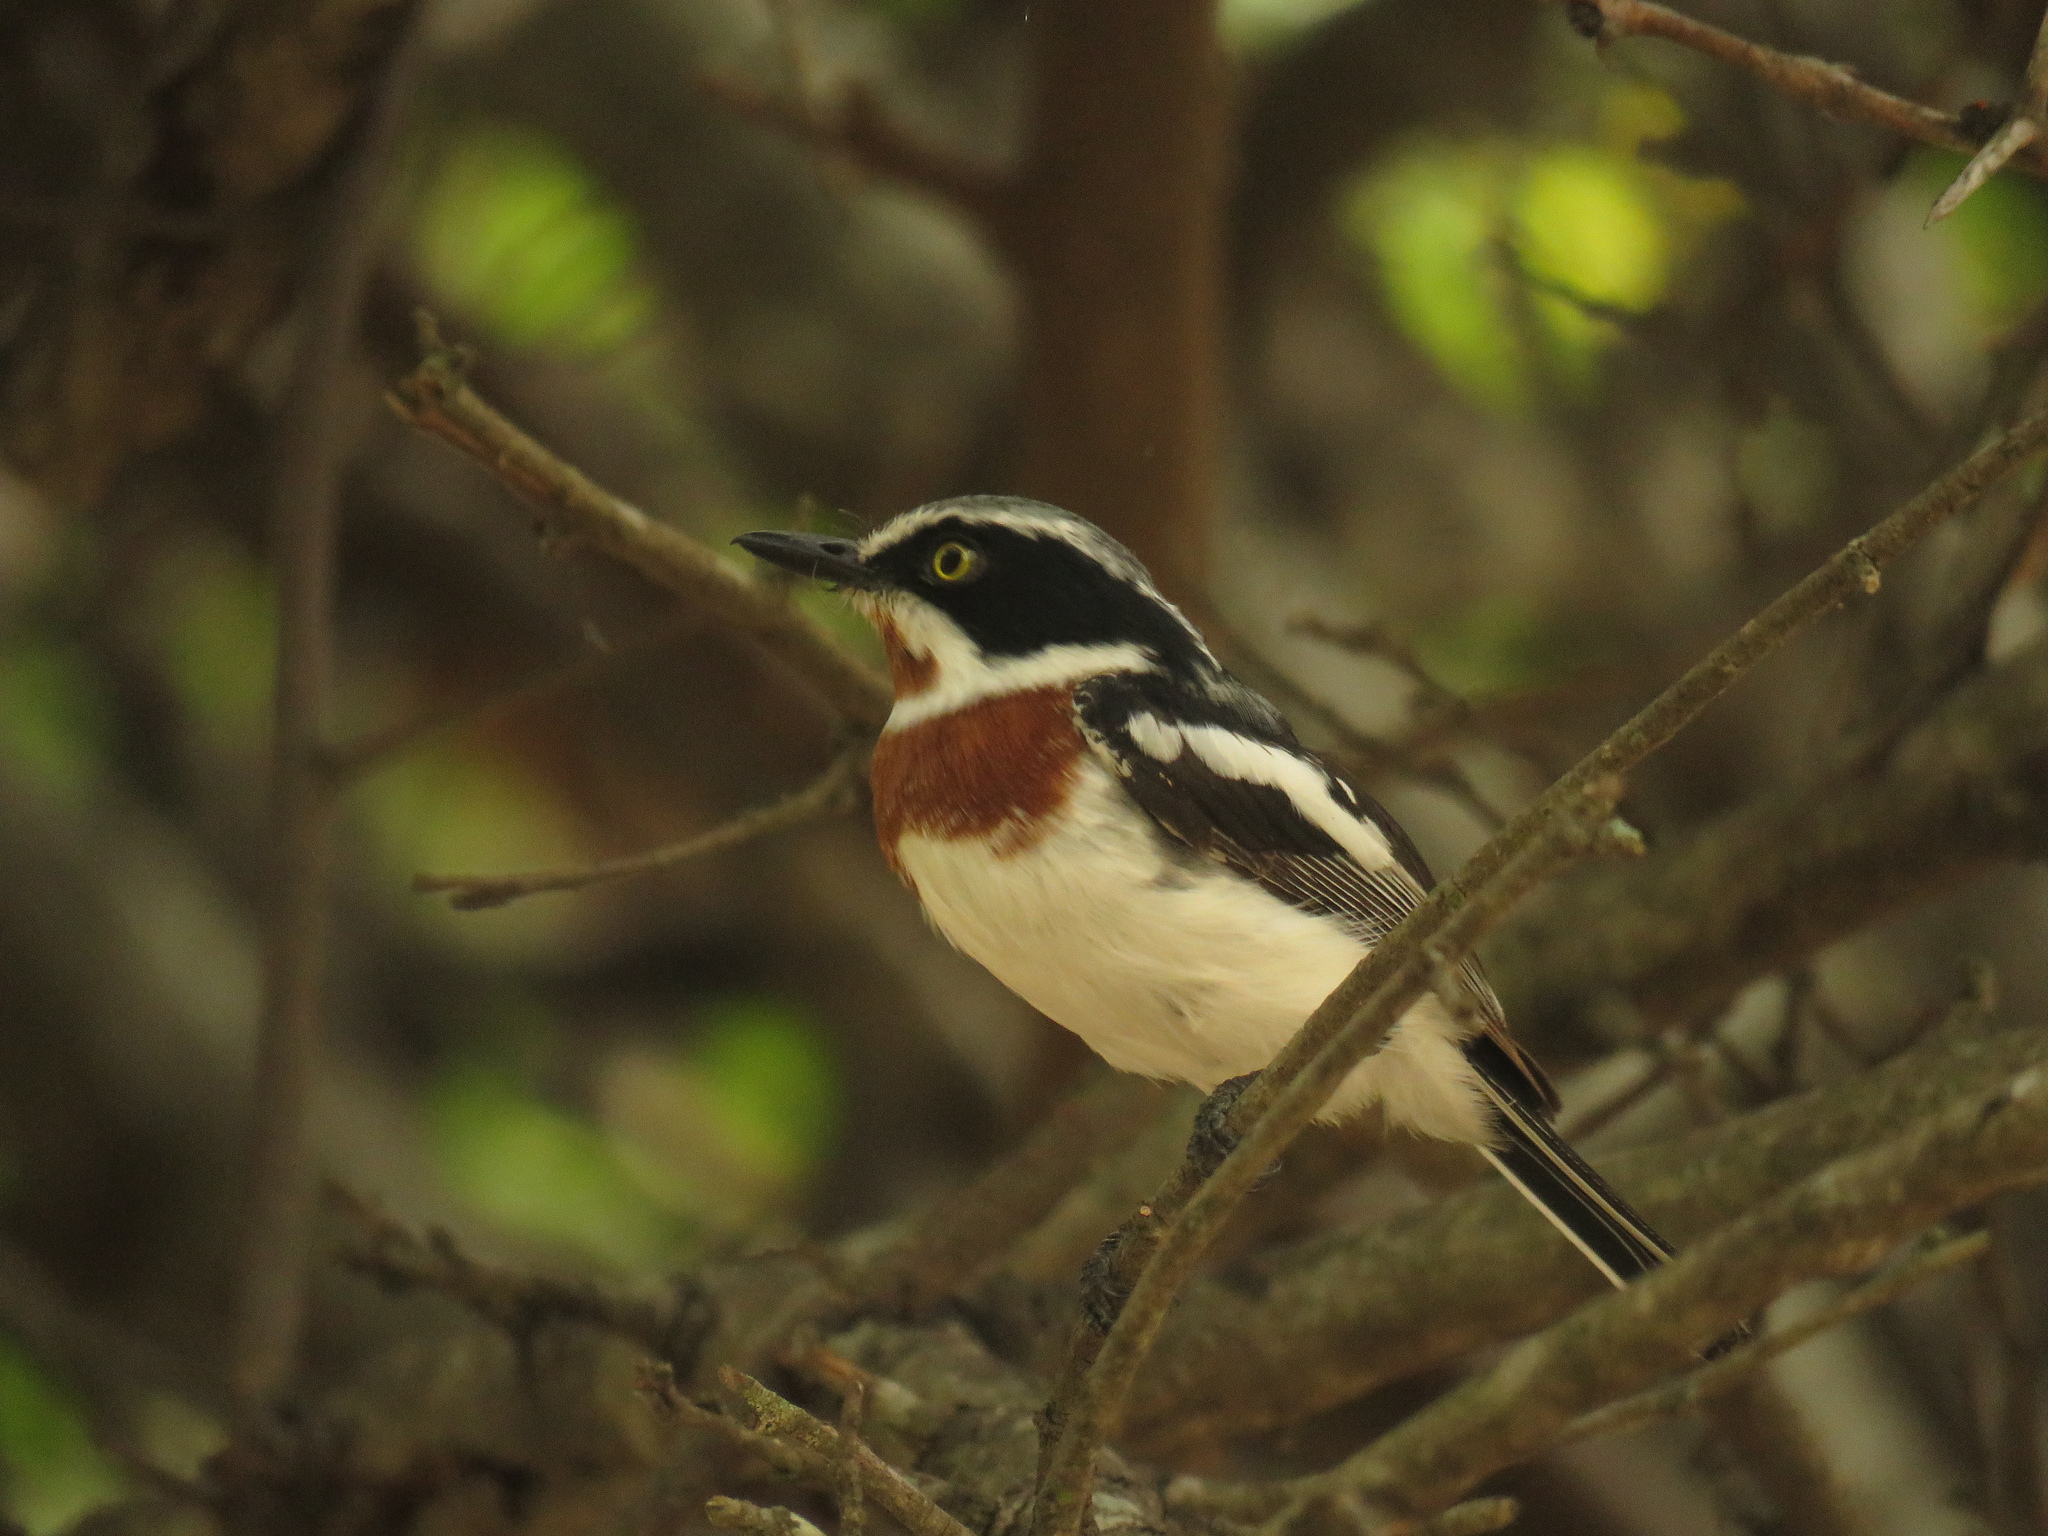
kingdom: Animalia
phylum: Chordata
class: Aves
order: Passeriformes
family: Platysteiridae
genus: Batis
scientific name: Batis molitor
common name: Chinspot batis
